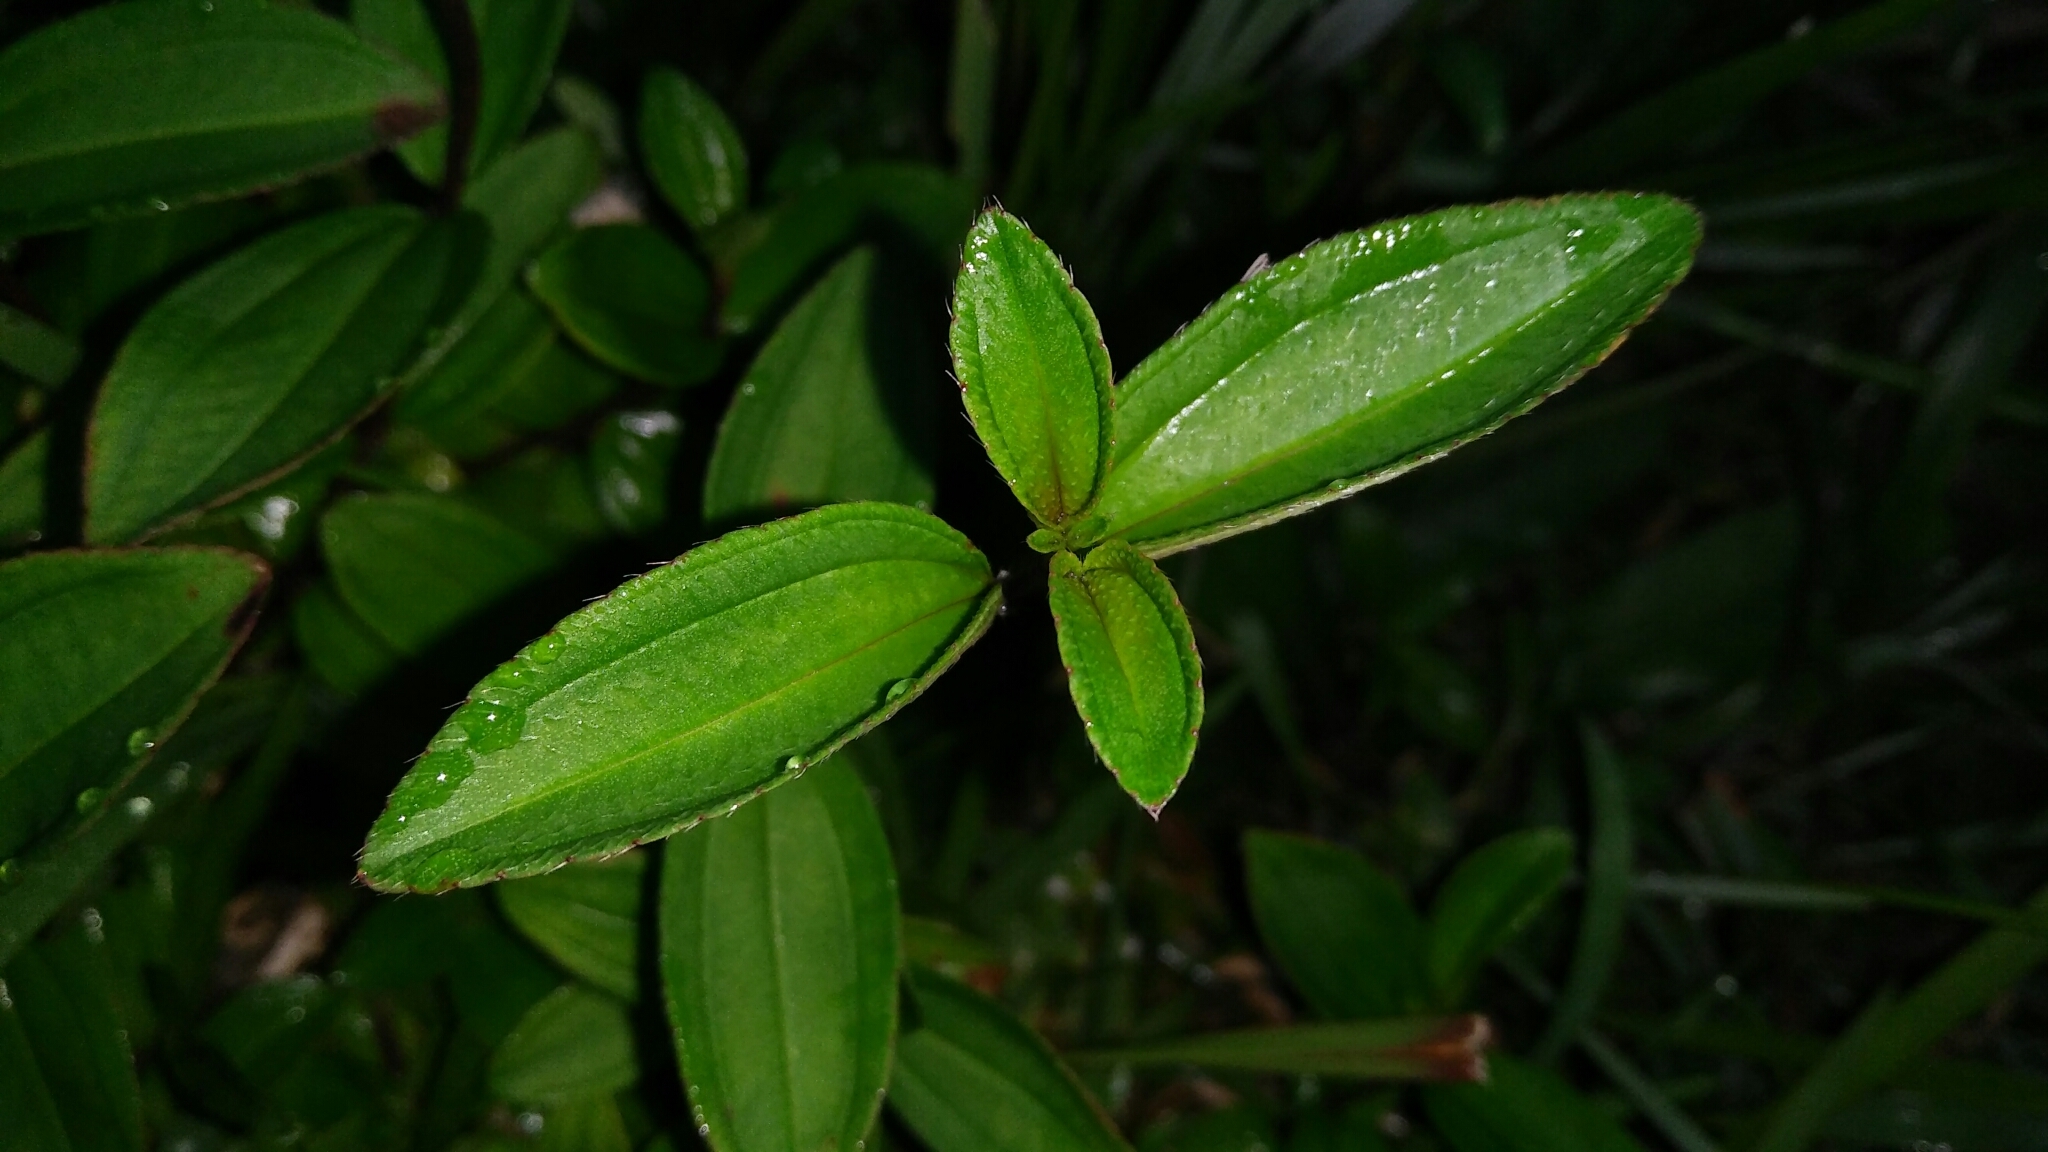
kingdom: Plantae
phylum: Tracheophyta
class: Magnoliopsida
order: Myrtales
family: Melastomataceae
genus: Melastoma
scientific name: Melastoma intermedium
